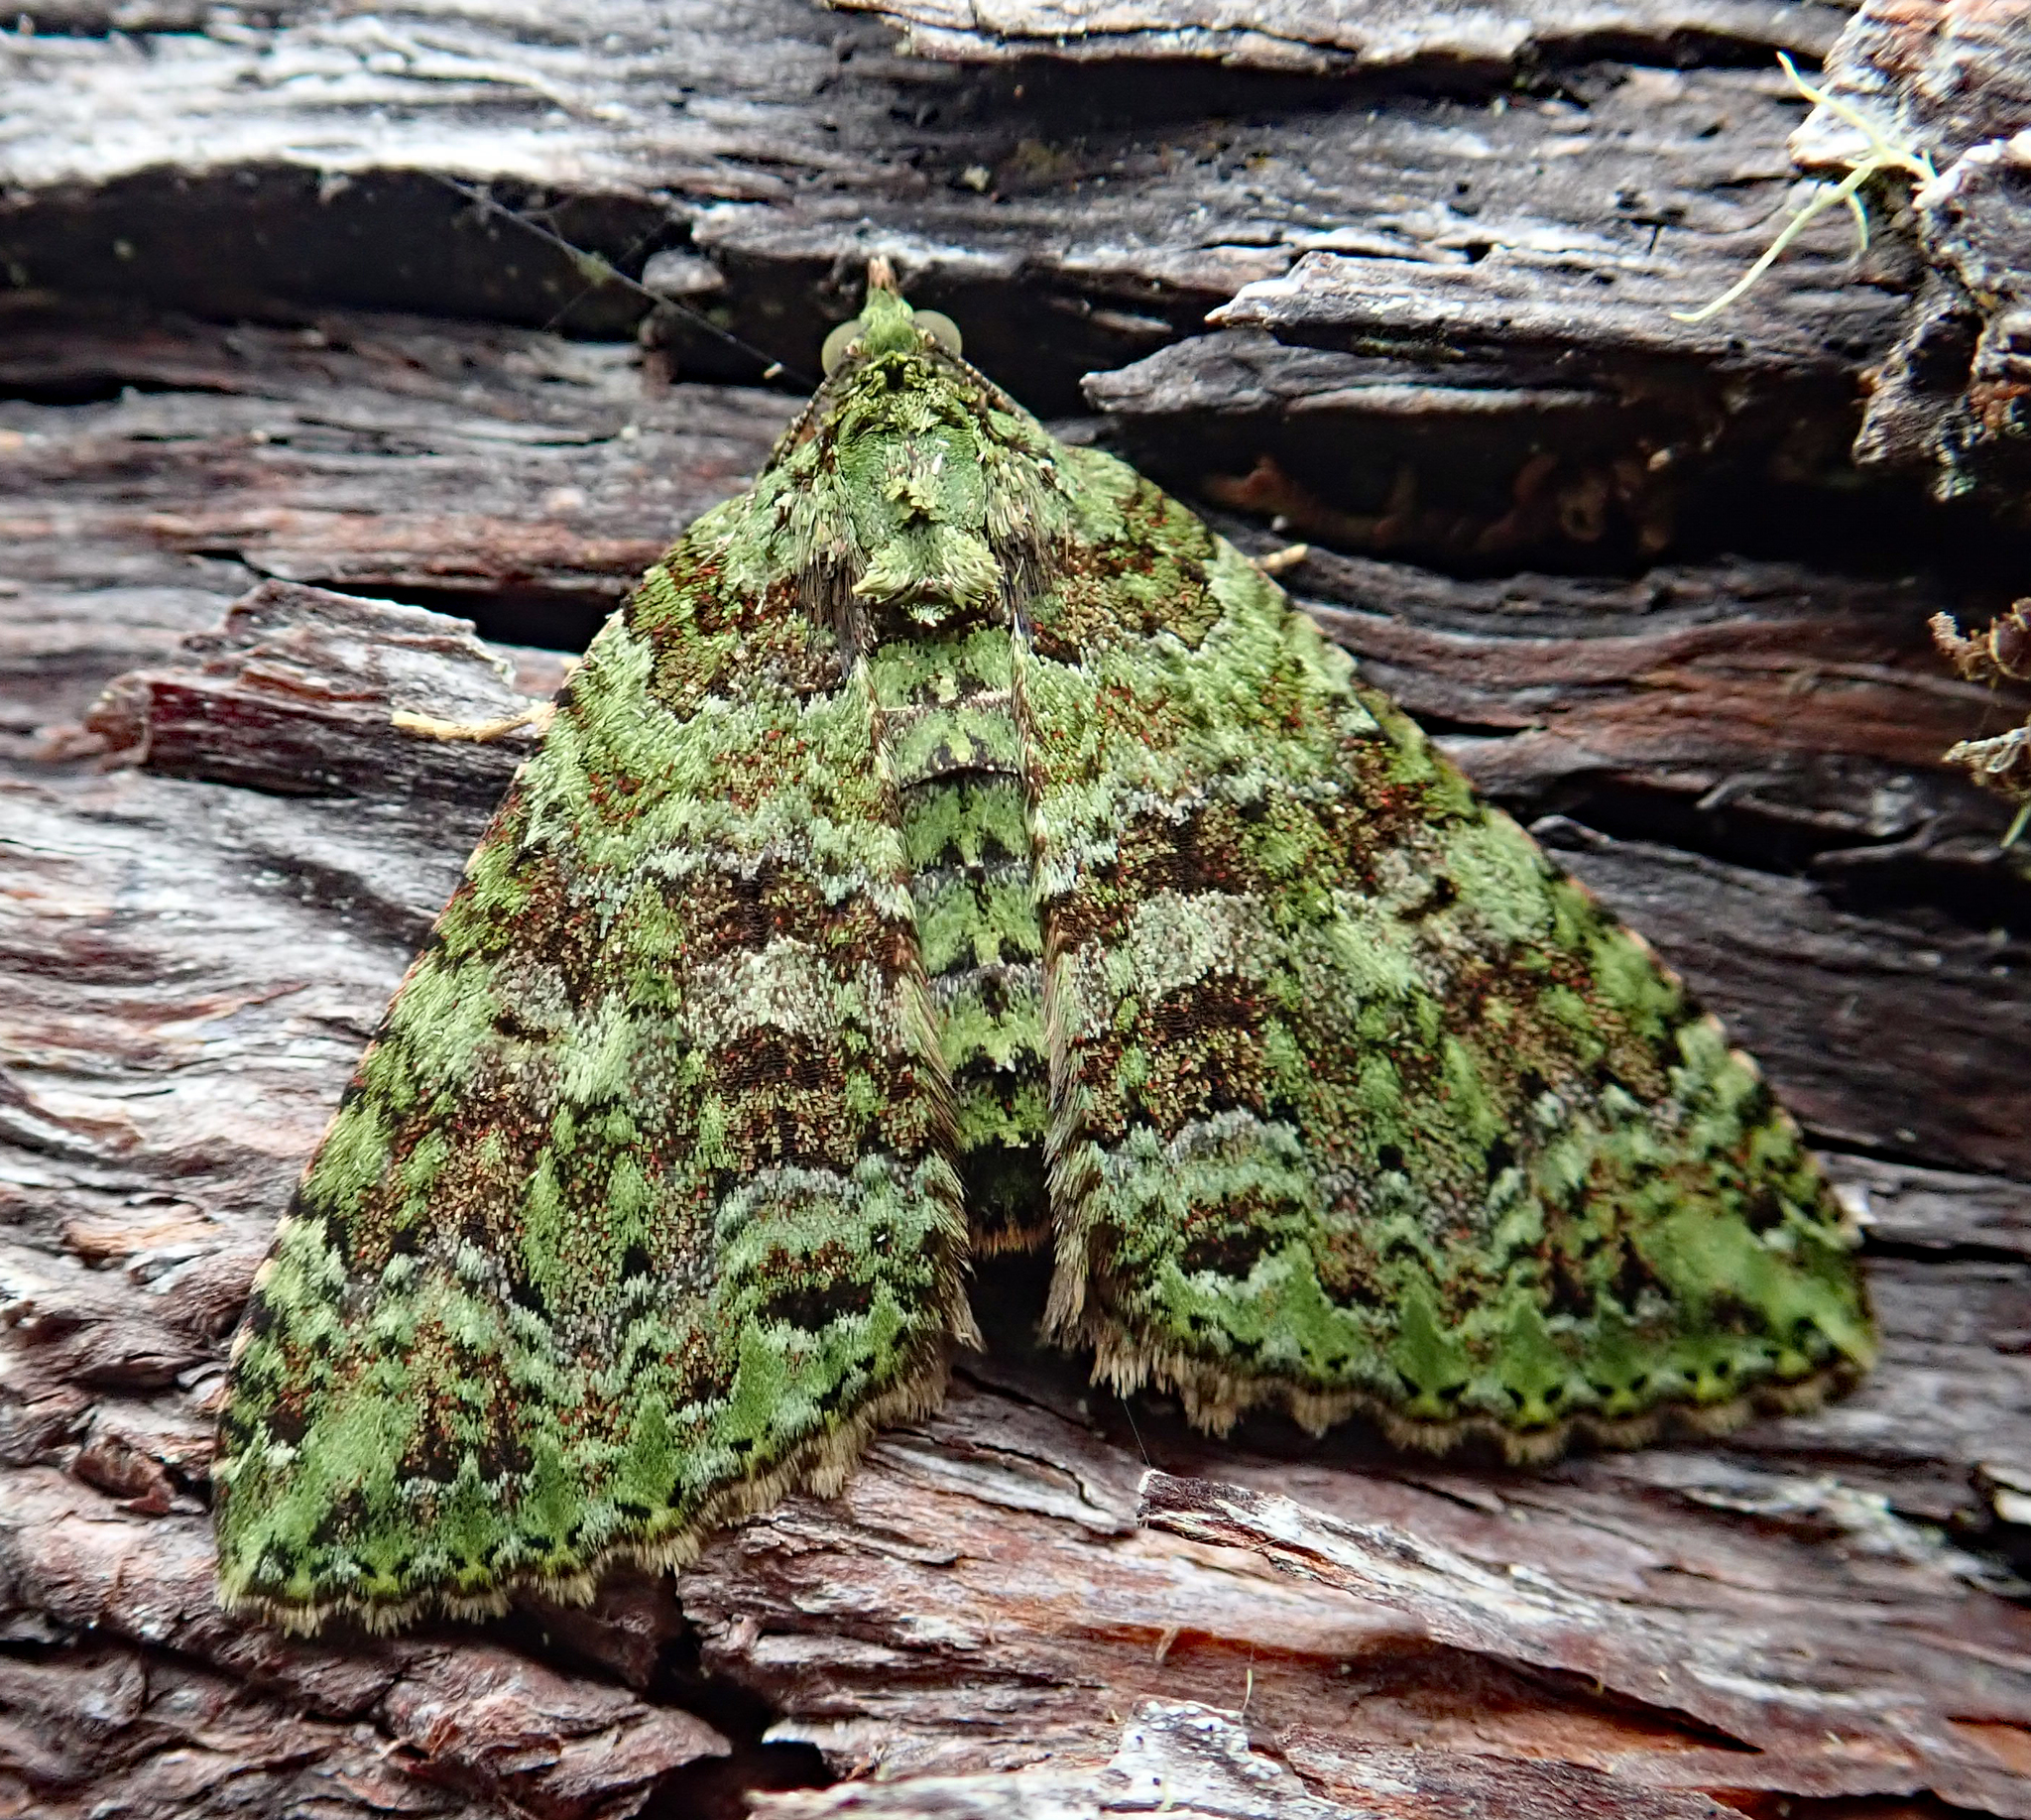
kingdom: Animalia
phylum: Arthropoda
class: Insecta
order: Lepidoptera
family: Geometridae
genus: Austrocidaria
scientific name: Austrocidaria similata
